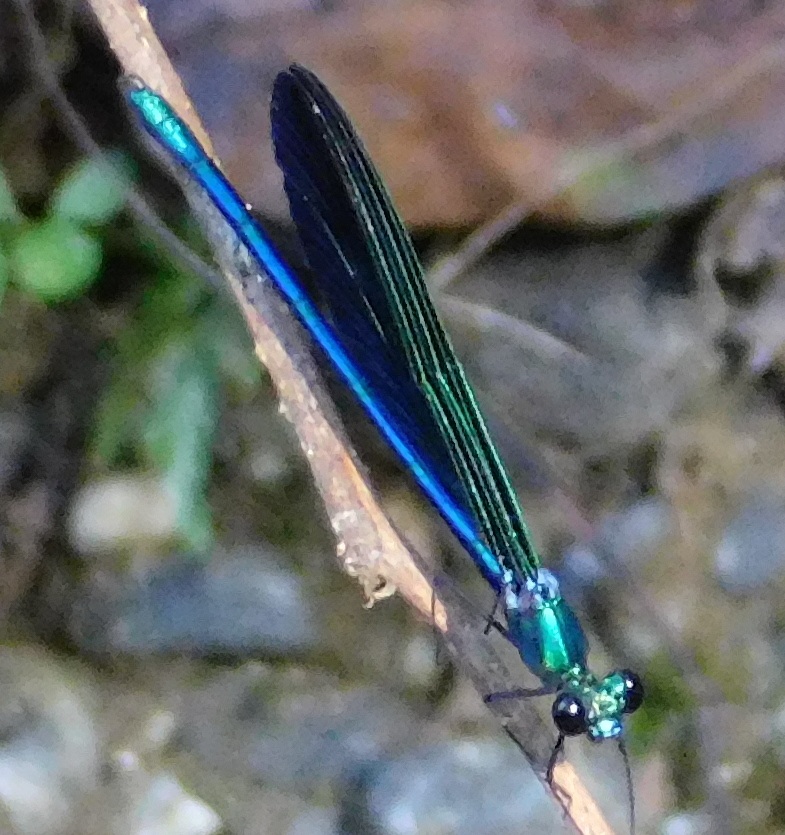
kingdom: Animalia
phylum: Arthropoda
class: Insecta
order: Odonata
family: Calopterygidae
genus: Calopteryx
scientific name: Calopteryx virgo
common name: Beautiful demoiselle
